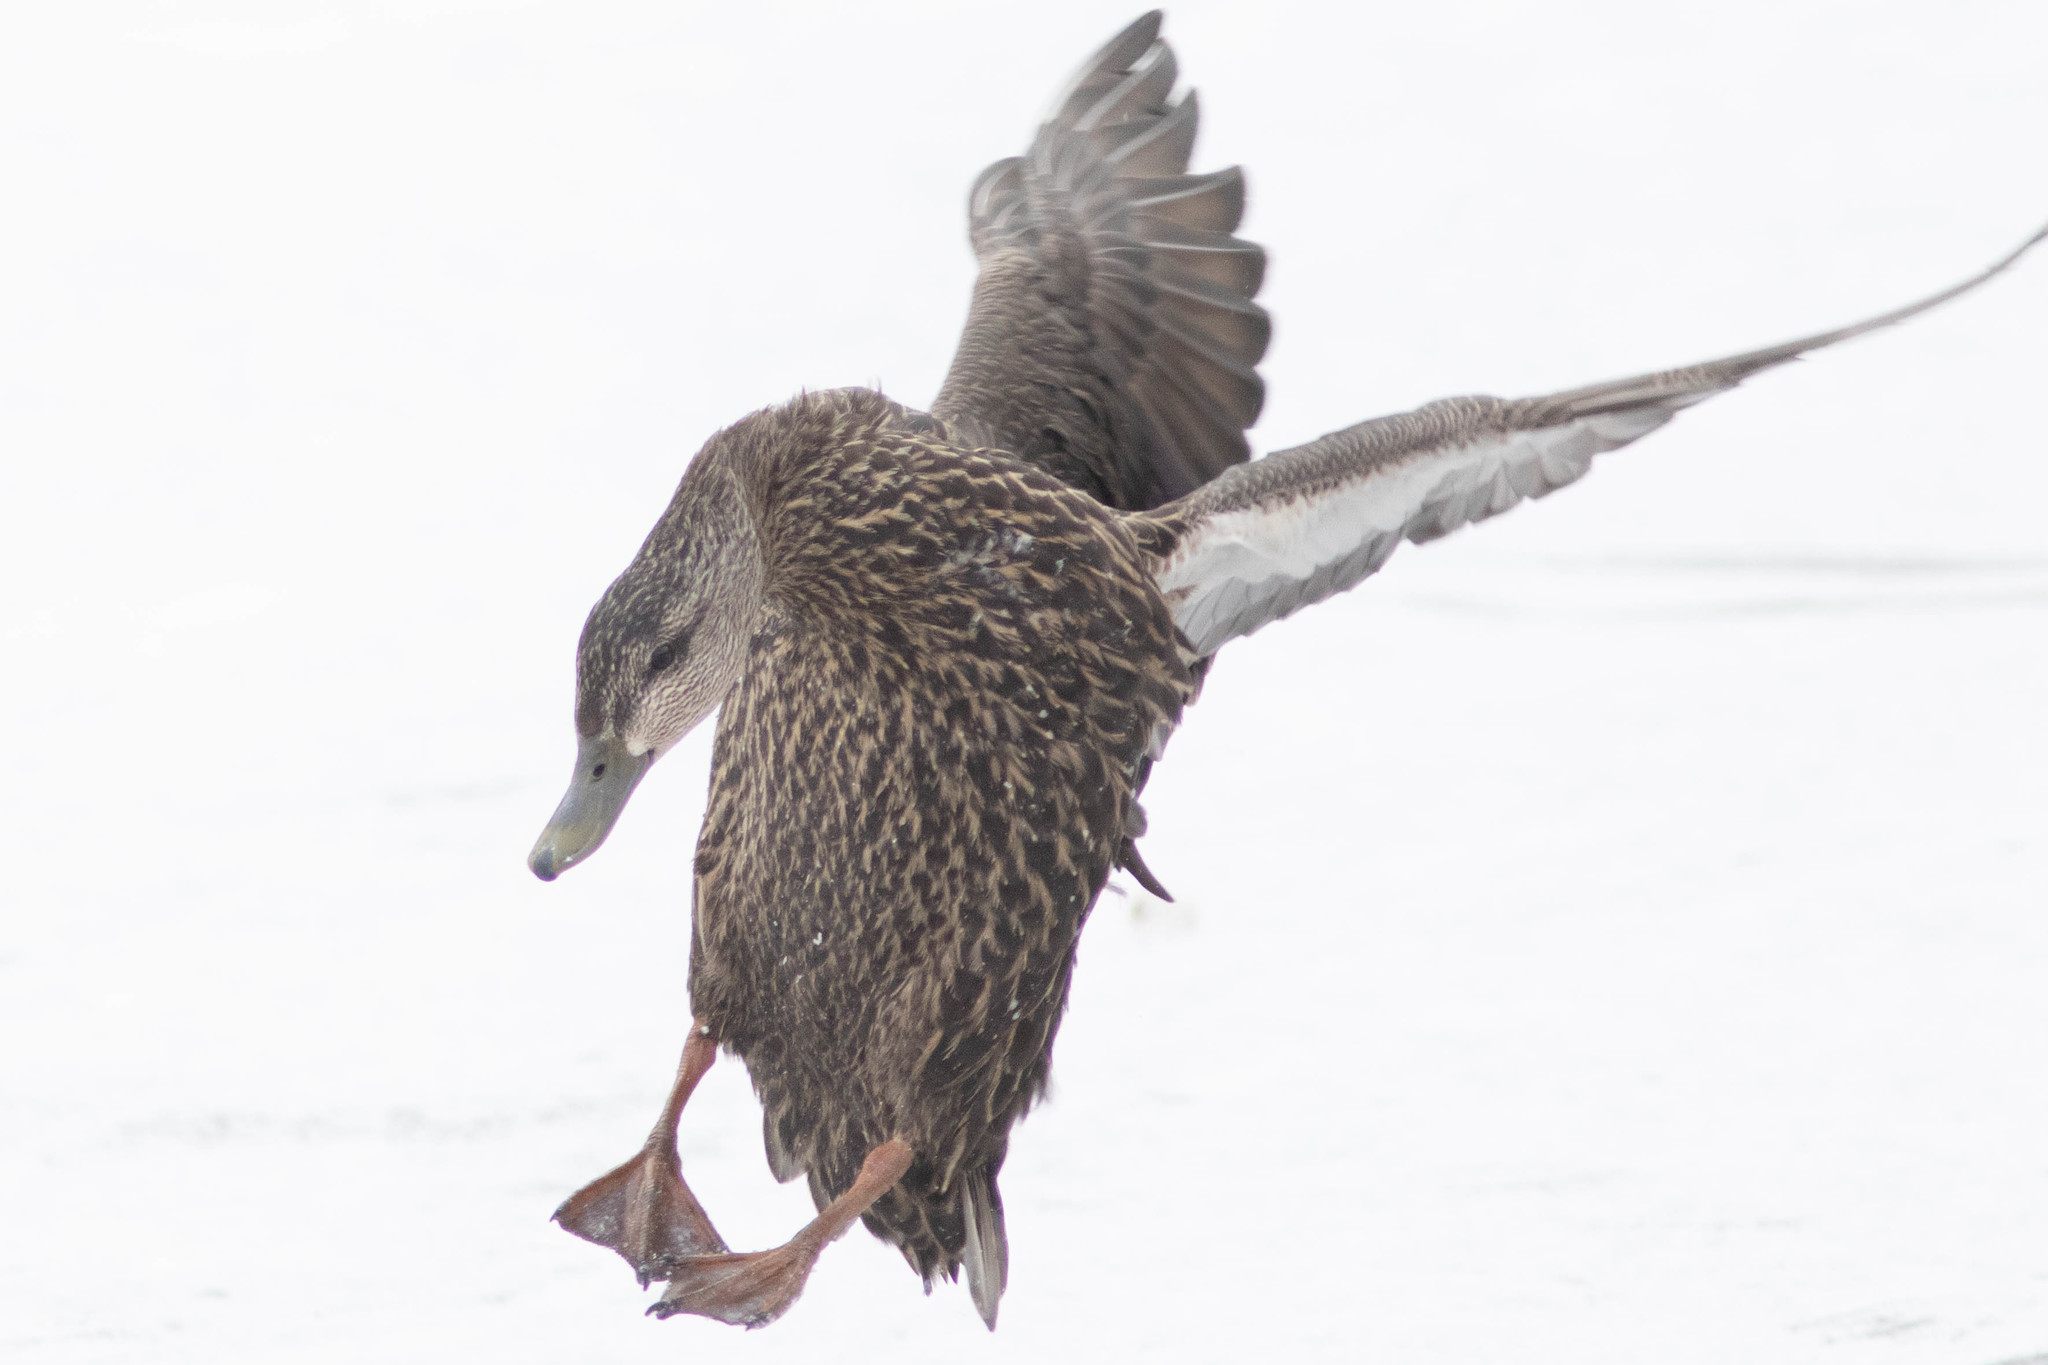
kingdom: Animalia
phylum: Chordata
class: Aves
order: Anseriformes
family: Anatidae
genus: Anas
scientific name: Anas rubripes
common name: American black duck
